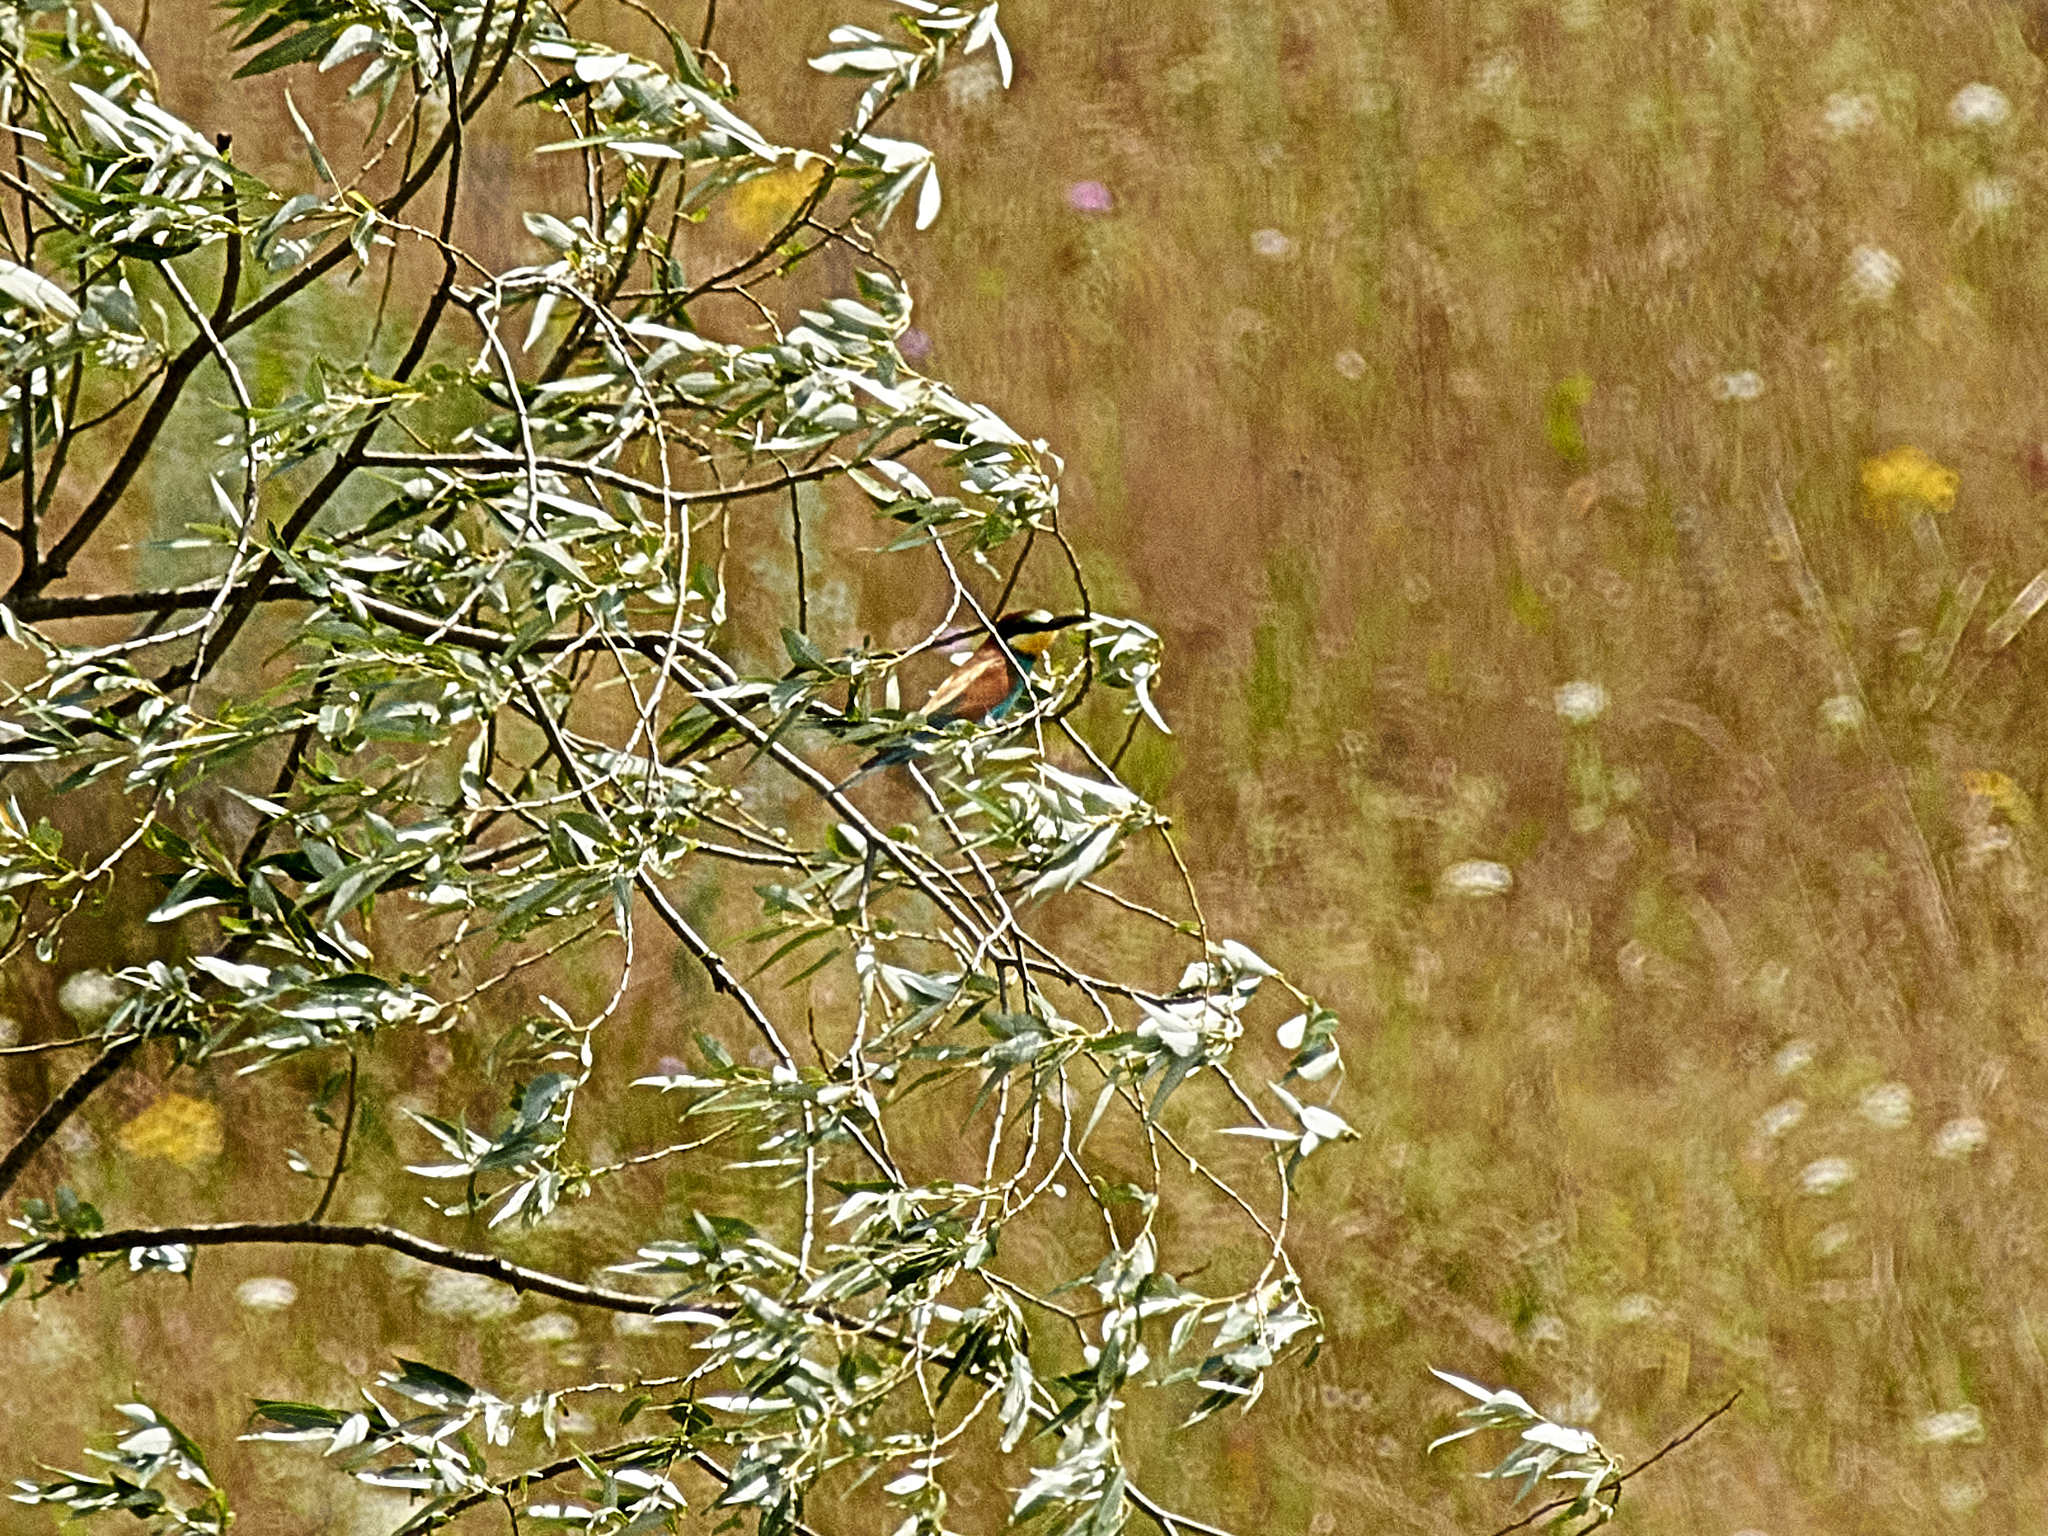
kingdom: Animalia
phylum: Chordata
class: Aves
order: Coraciiformes
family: Meropidae
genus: Merops
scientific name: Merops apiaster
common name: European bee-eater
